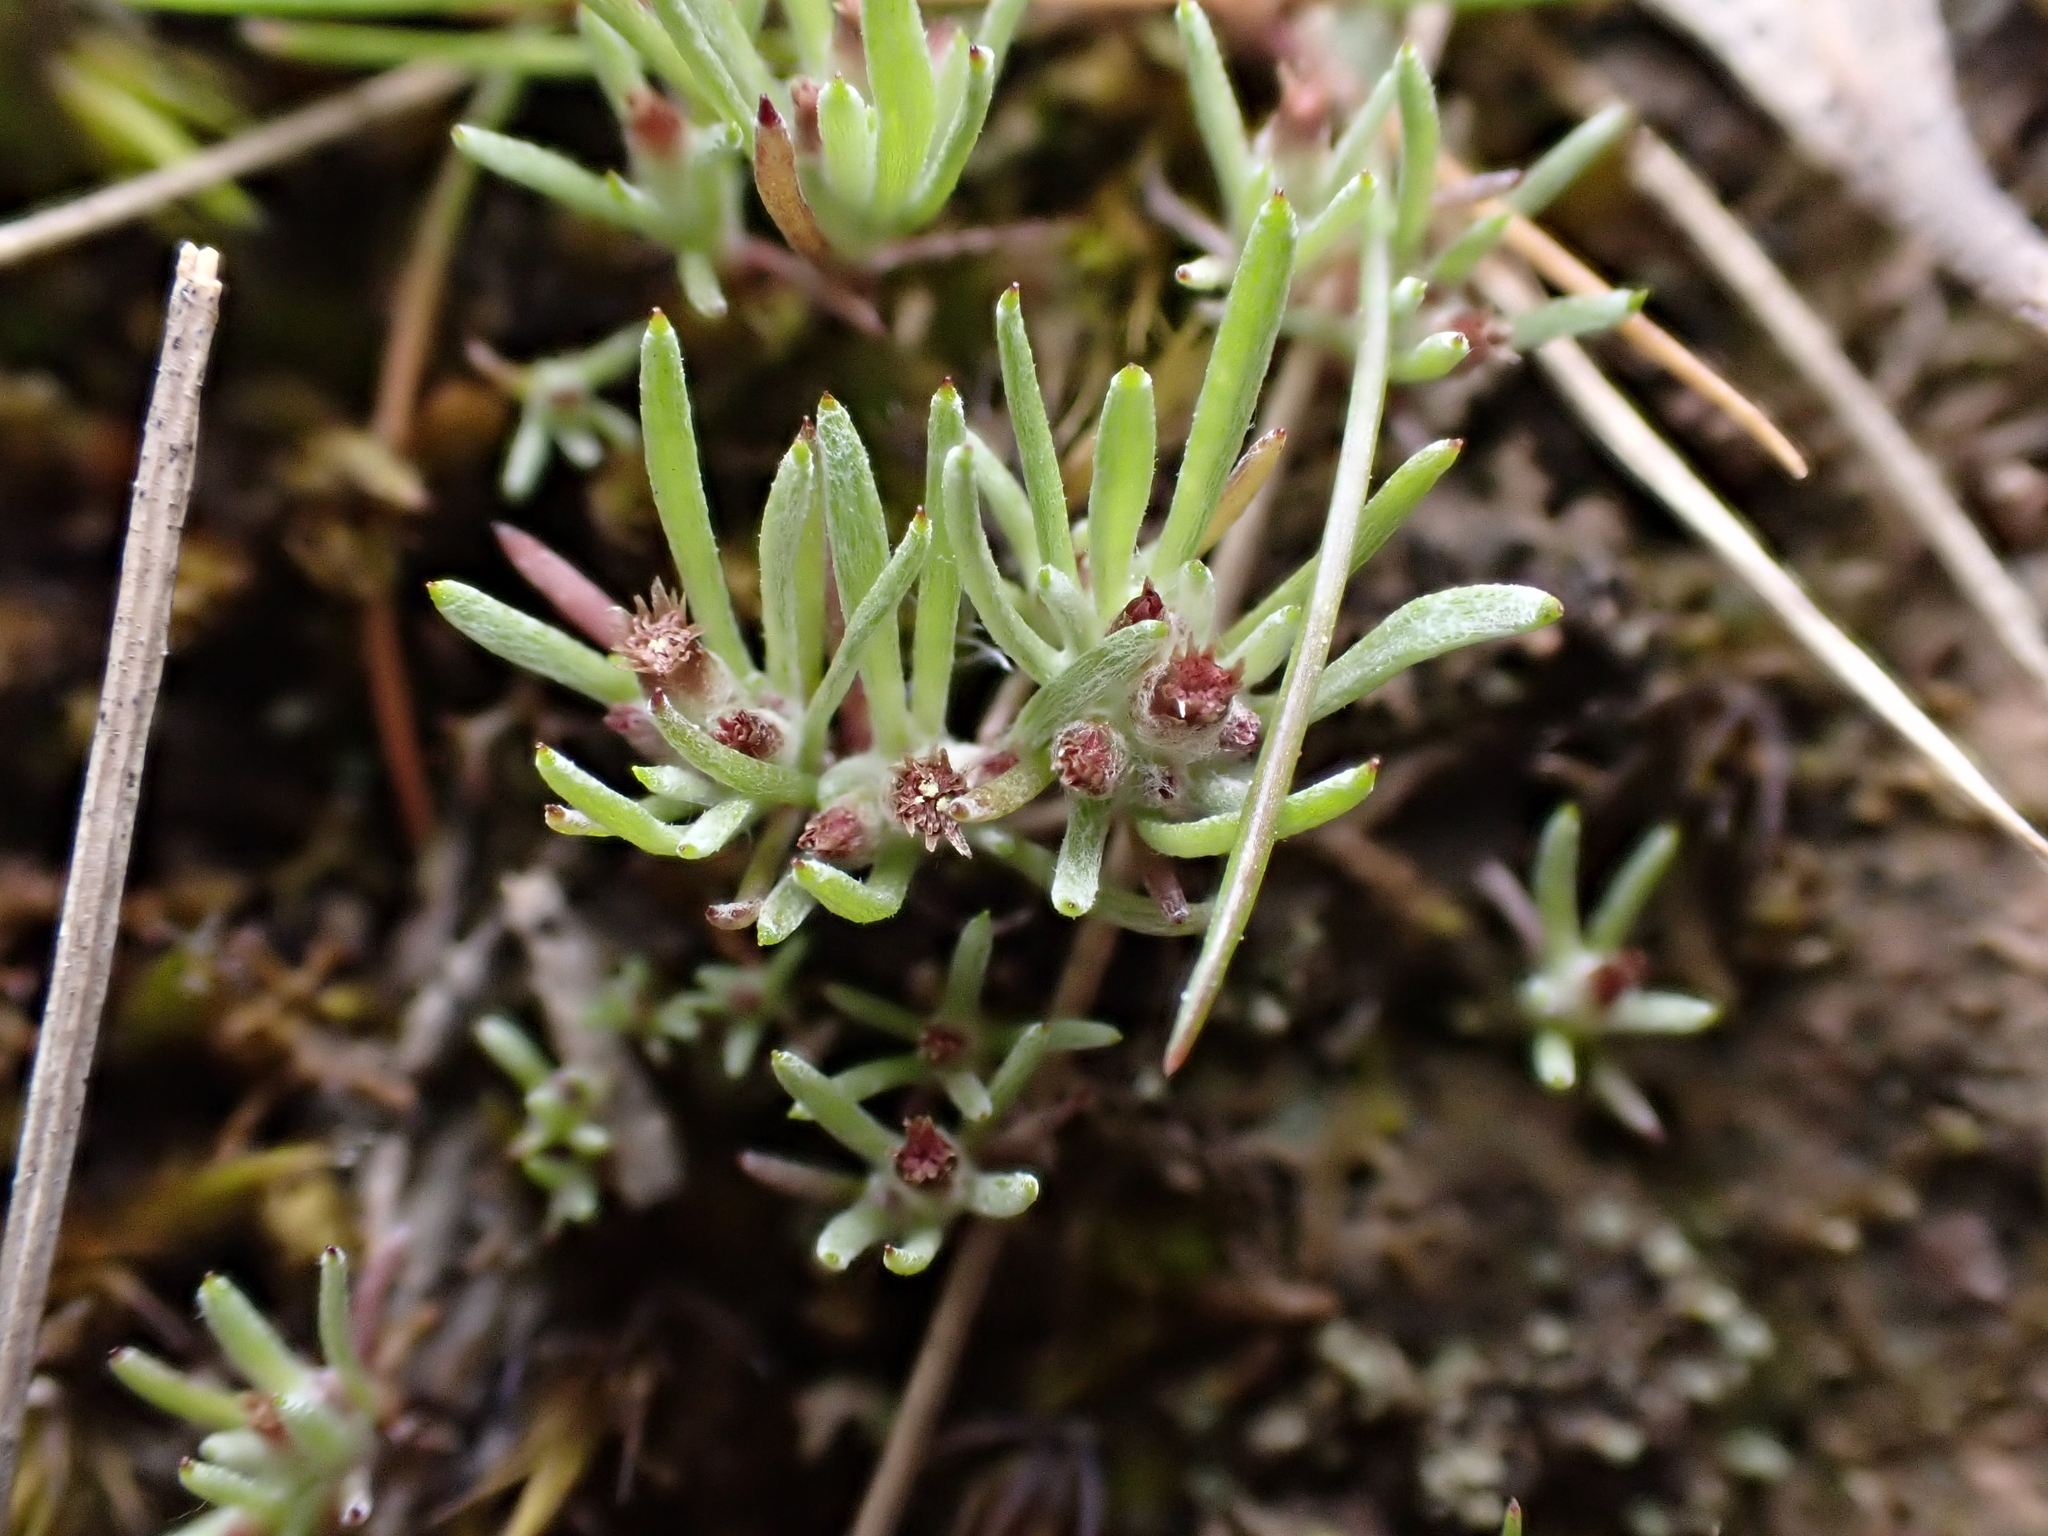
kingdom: Plantae
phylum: Tracheophyta
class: Magnoliopsida
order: Asterales
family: Asteraceae
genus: Gnaphalium
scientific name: Gnaphalium indutum
